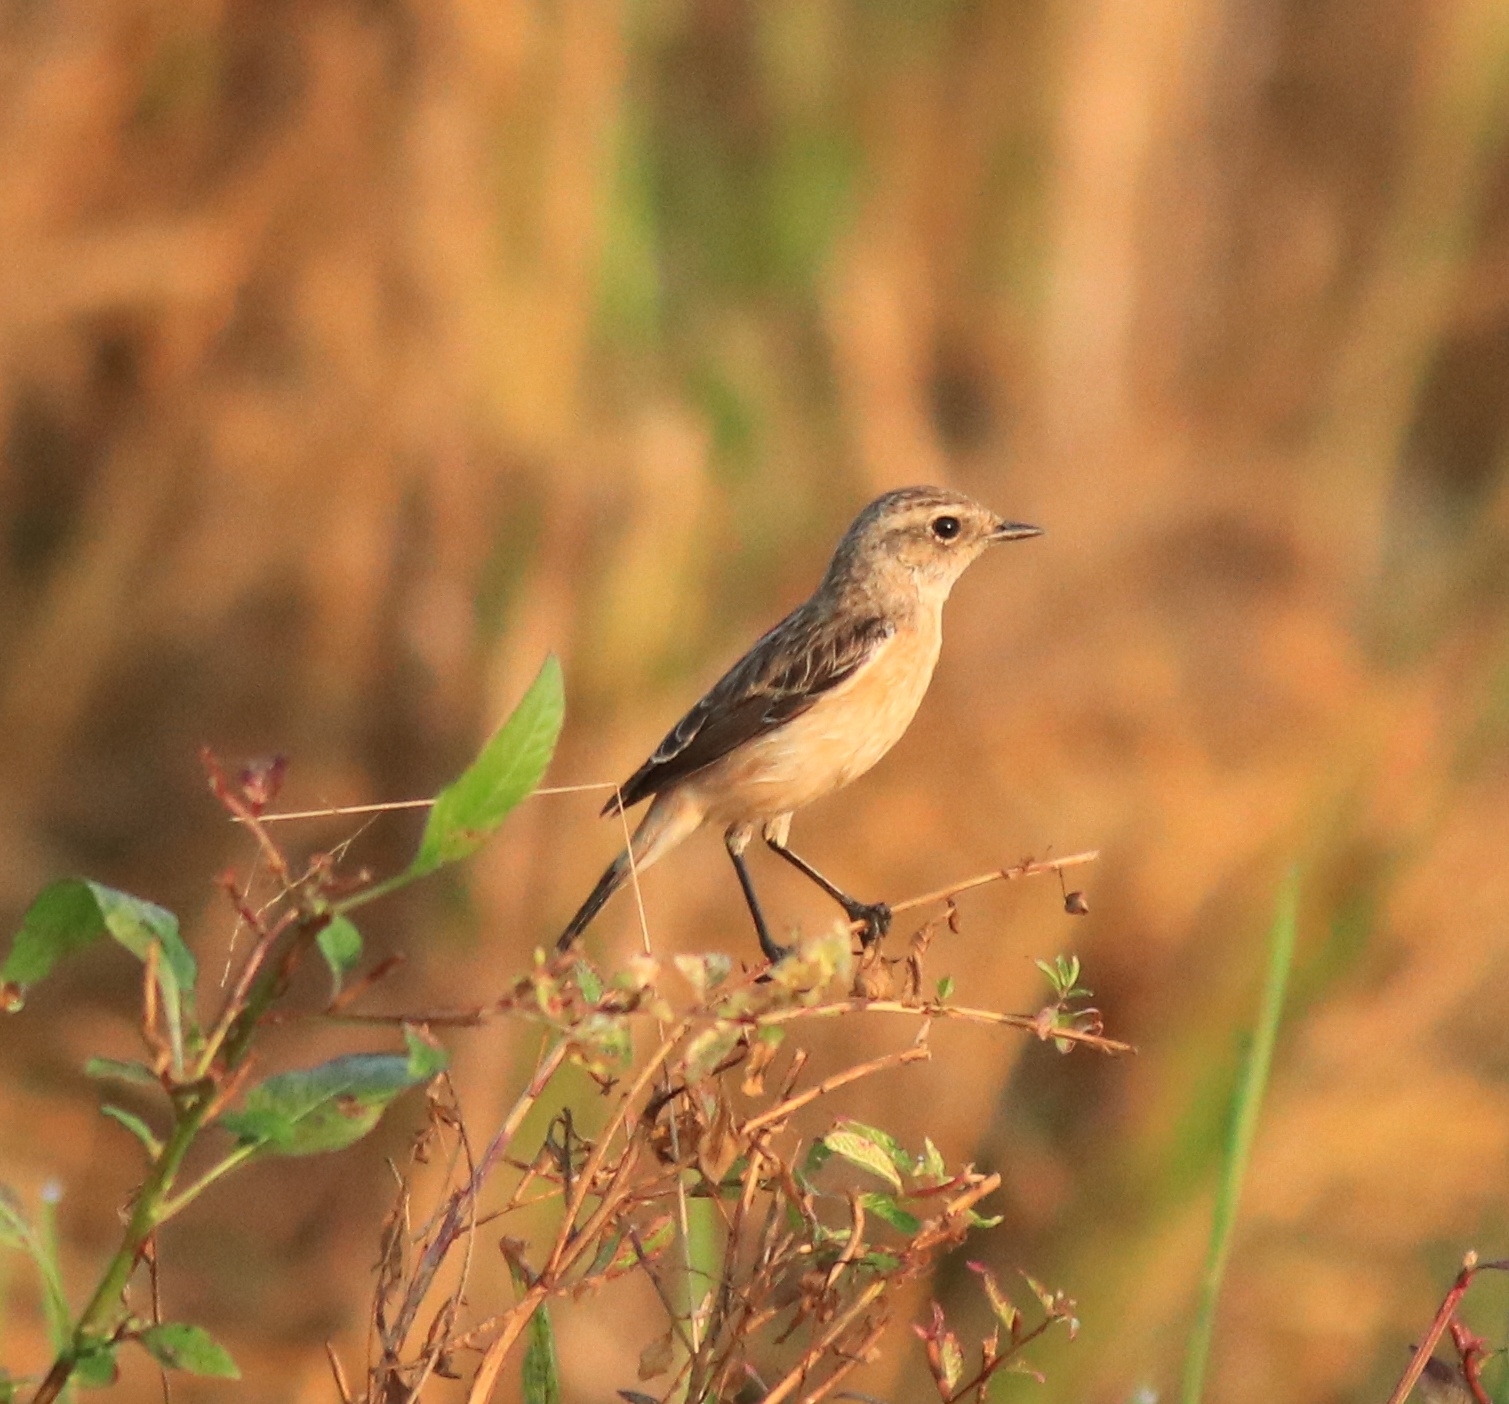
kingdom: Animalia
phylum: Chordata
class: Aves
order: Passeriformes
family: Muscicapidae
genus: Saxicola
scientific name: Saxicola maurus
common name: Siberian stonechat
